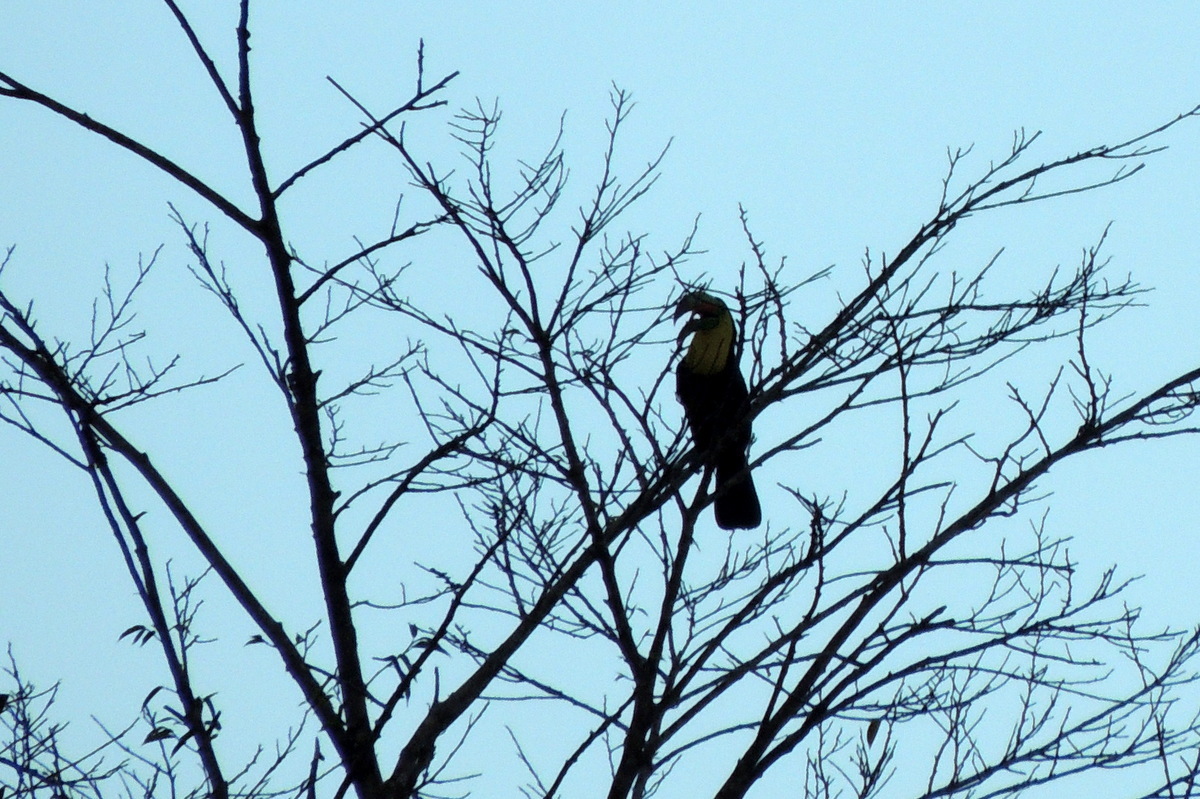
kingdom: Animalia
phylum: Chordata
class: Aves
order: Piciformes
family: Ramphastidae
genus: Ramphastos
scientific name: Ramphastos ambiguus
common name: Yellow-throated toucan
